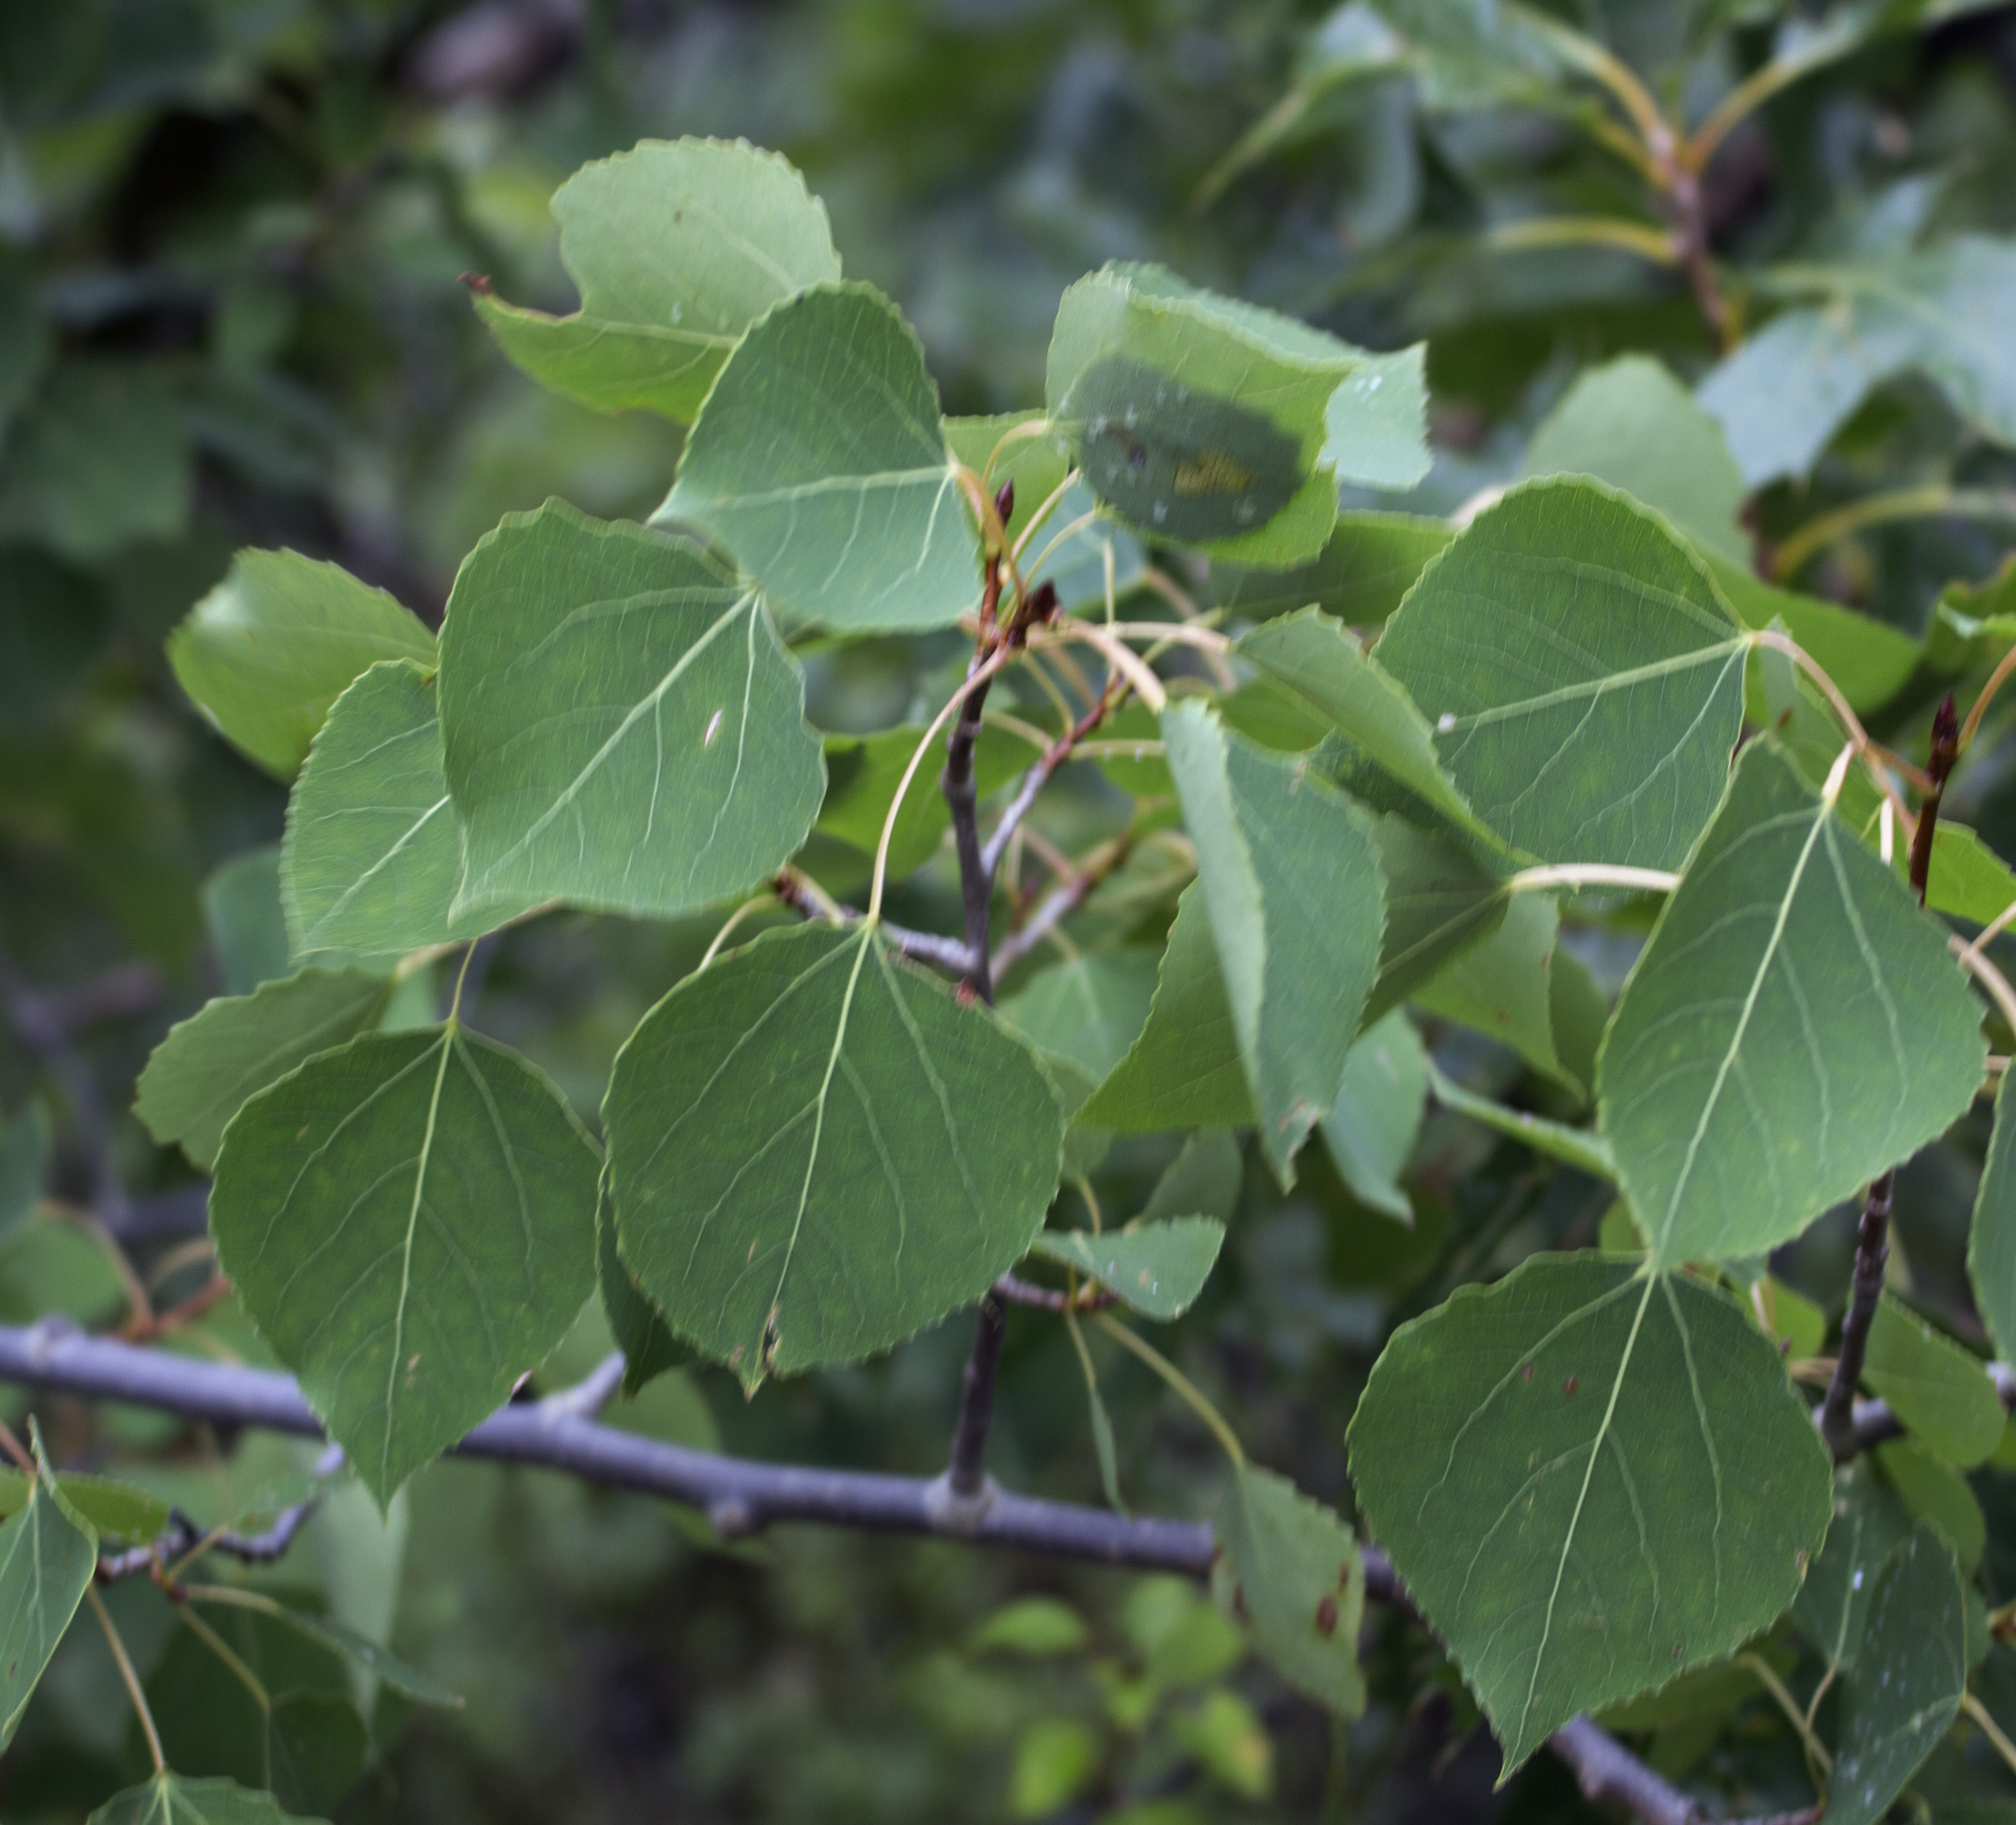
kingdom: Plantae
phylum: Tracheophyta
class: Magnoliopsida
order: Malpighiales
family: Salicaceae
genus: Populus
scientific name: Populus tremuloides
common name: Quaking aspen
